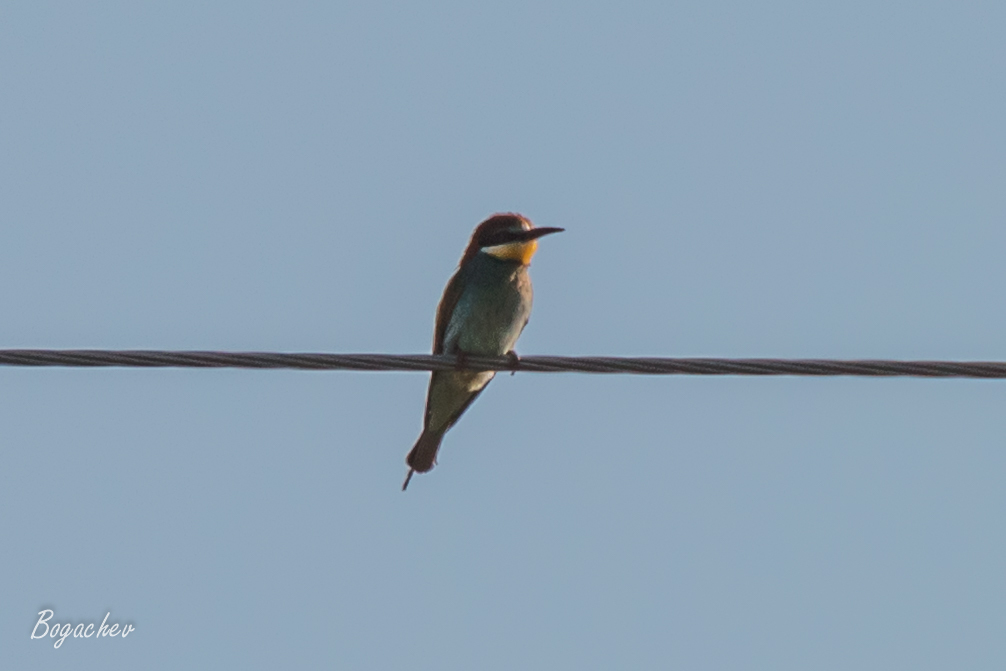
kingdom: Animalia
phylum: Chordata
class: Aves
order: Coraciiformes
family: Meropidae
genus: Merops
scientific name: Merops apiaster
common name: European bee-eater
